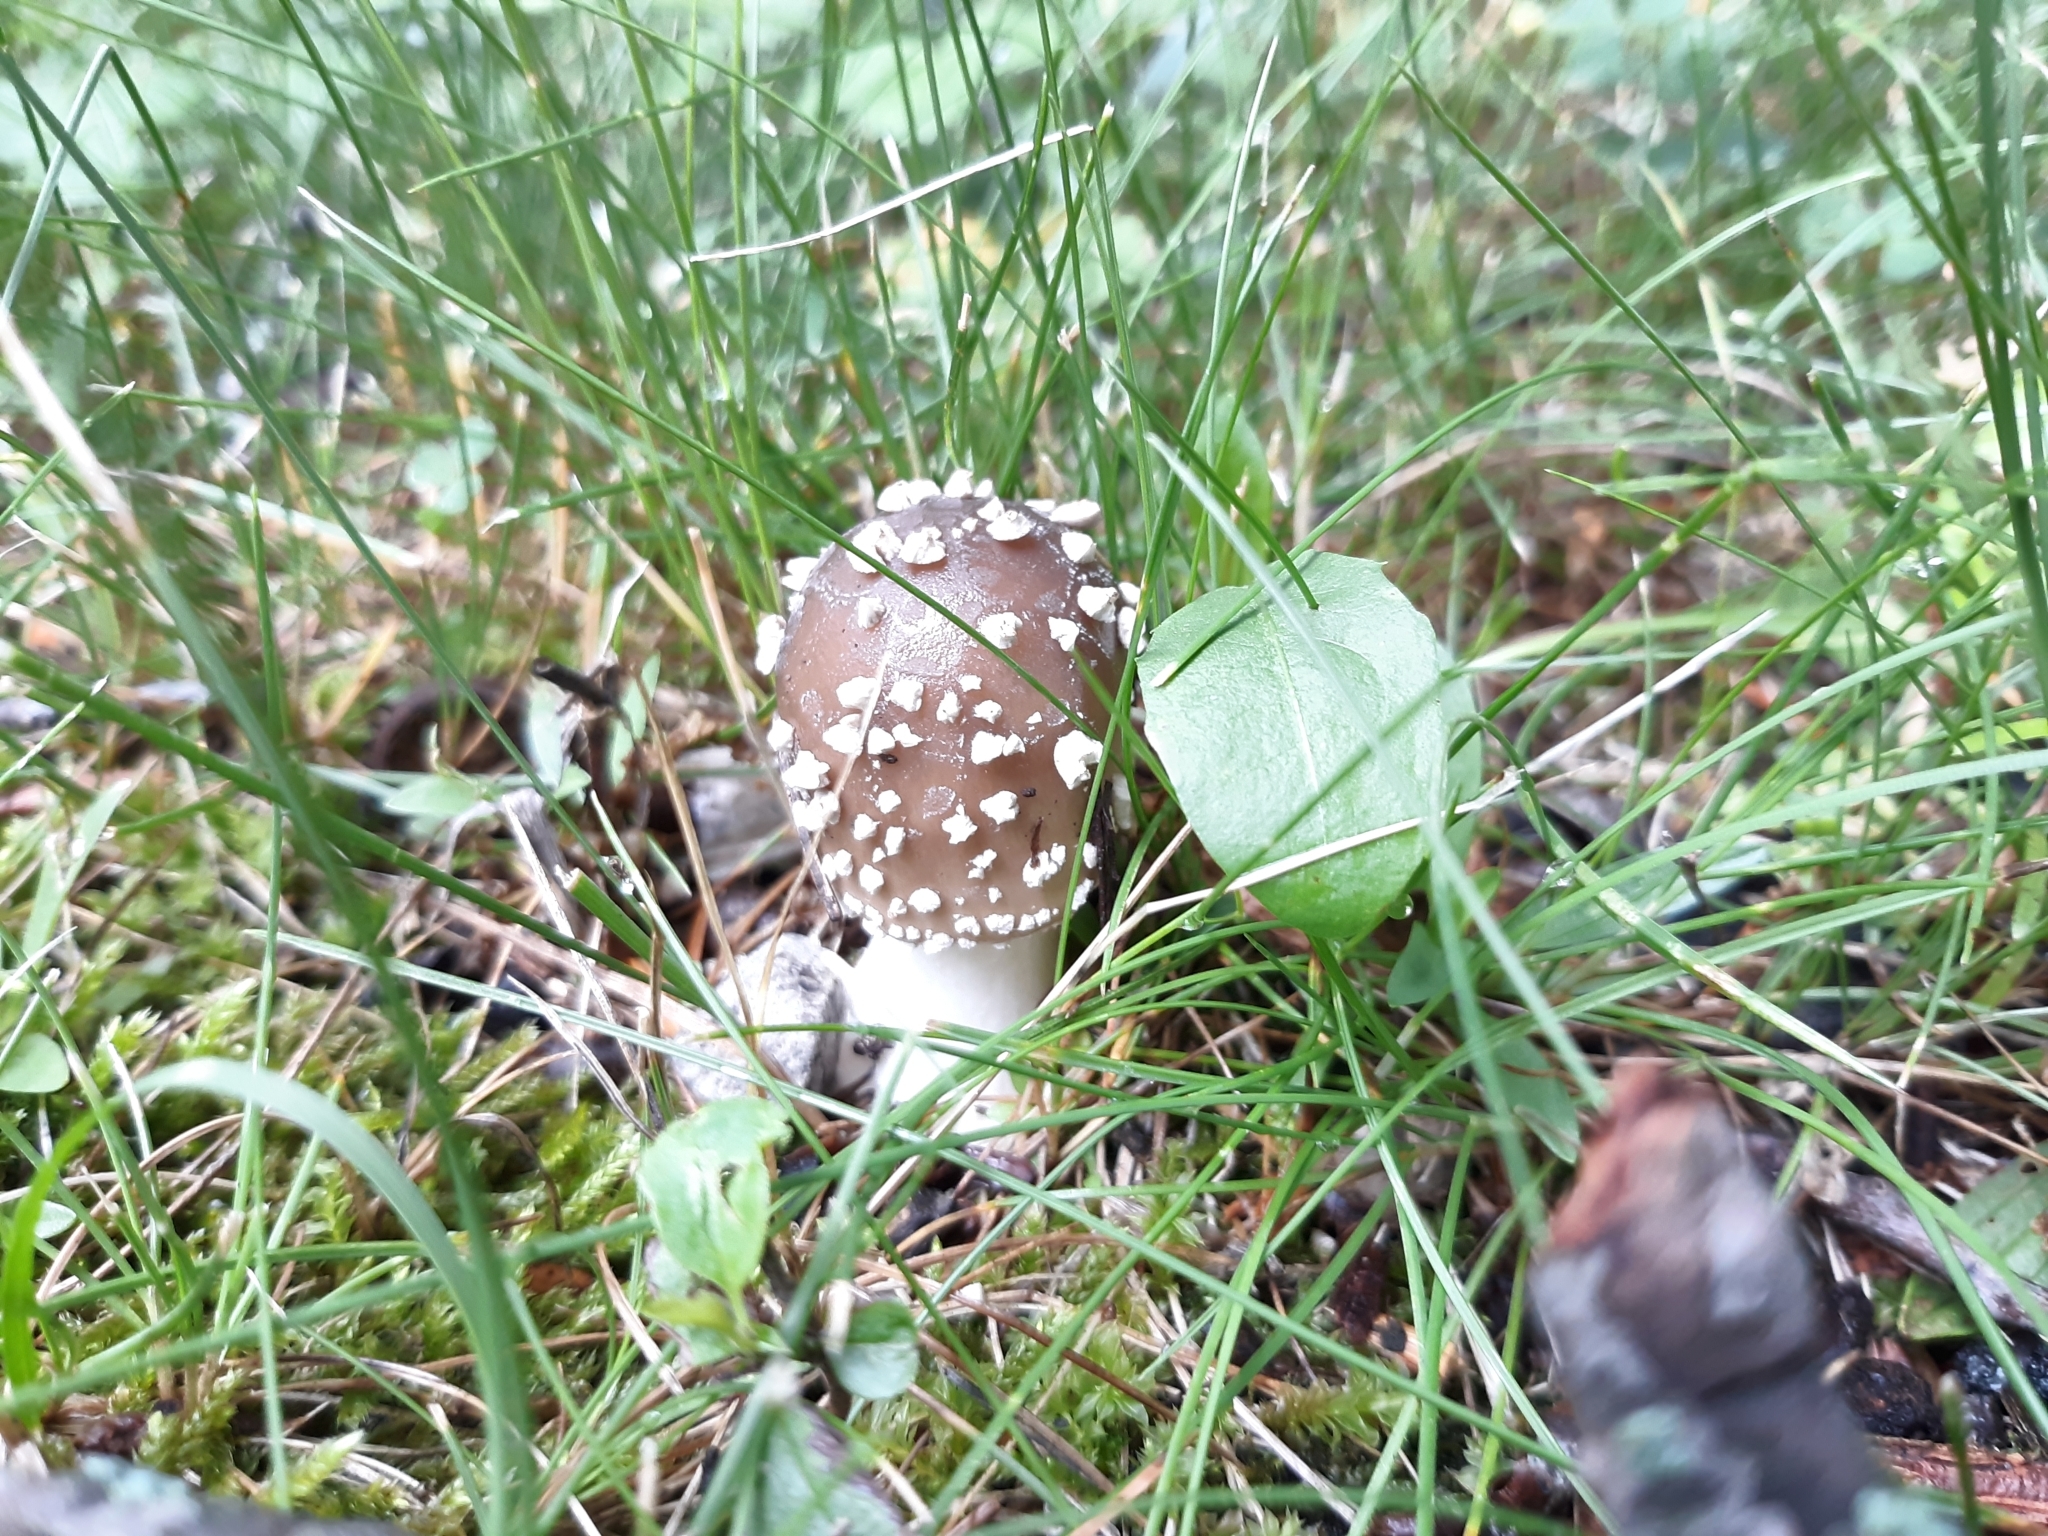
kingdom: Fungi
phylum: Basidiomycota
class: Agaricomycetes
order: Agaricales
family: Amanitaceae
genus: Amanita
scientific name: Amanita brunnescens
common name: Brown american star-footed amanita
